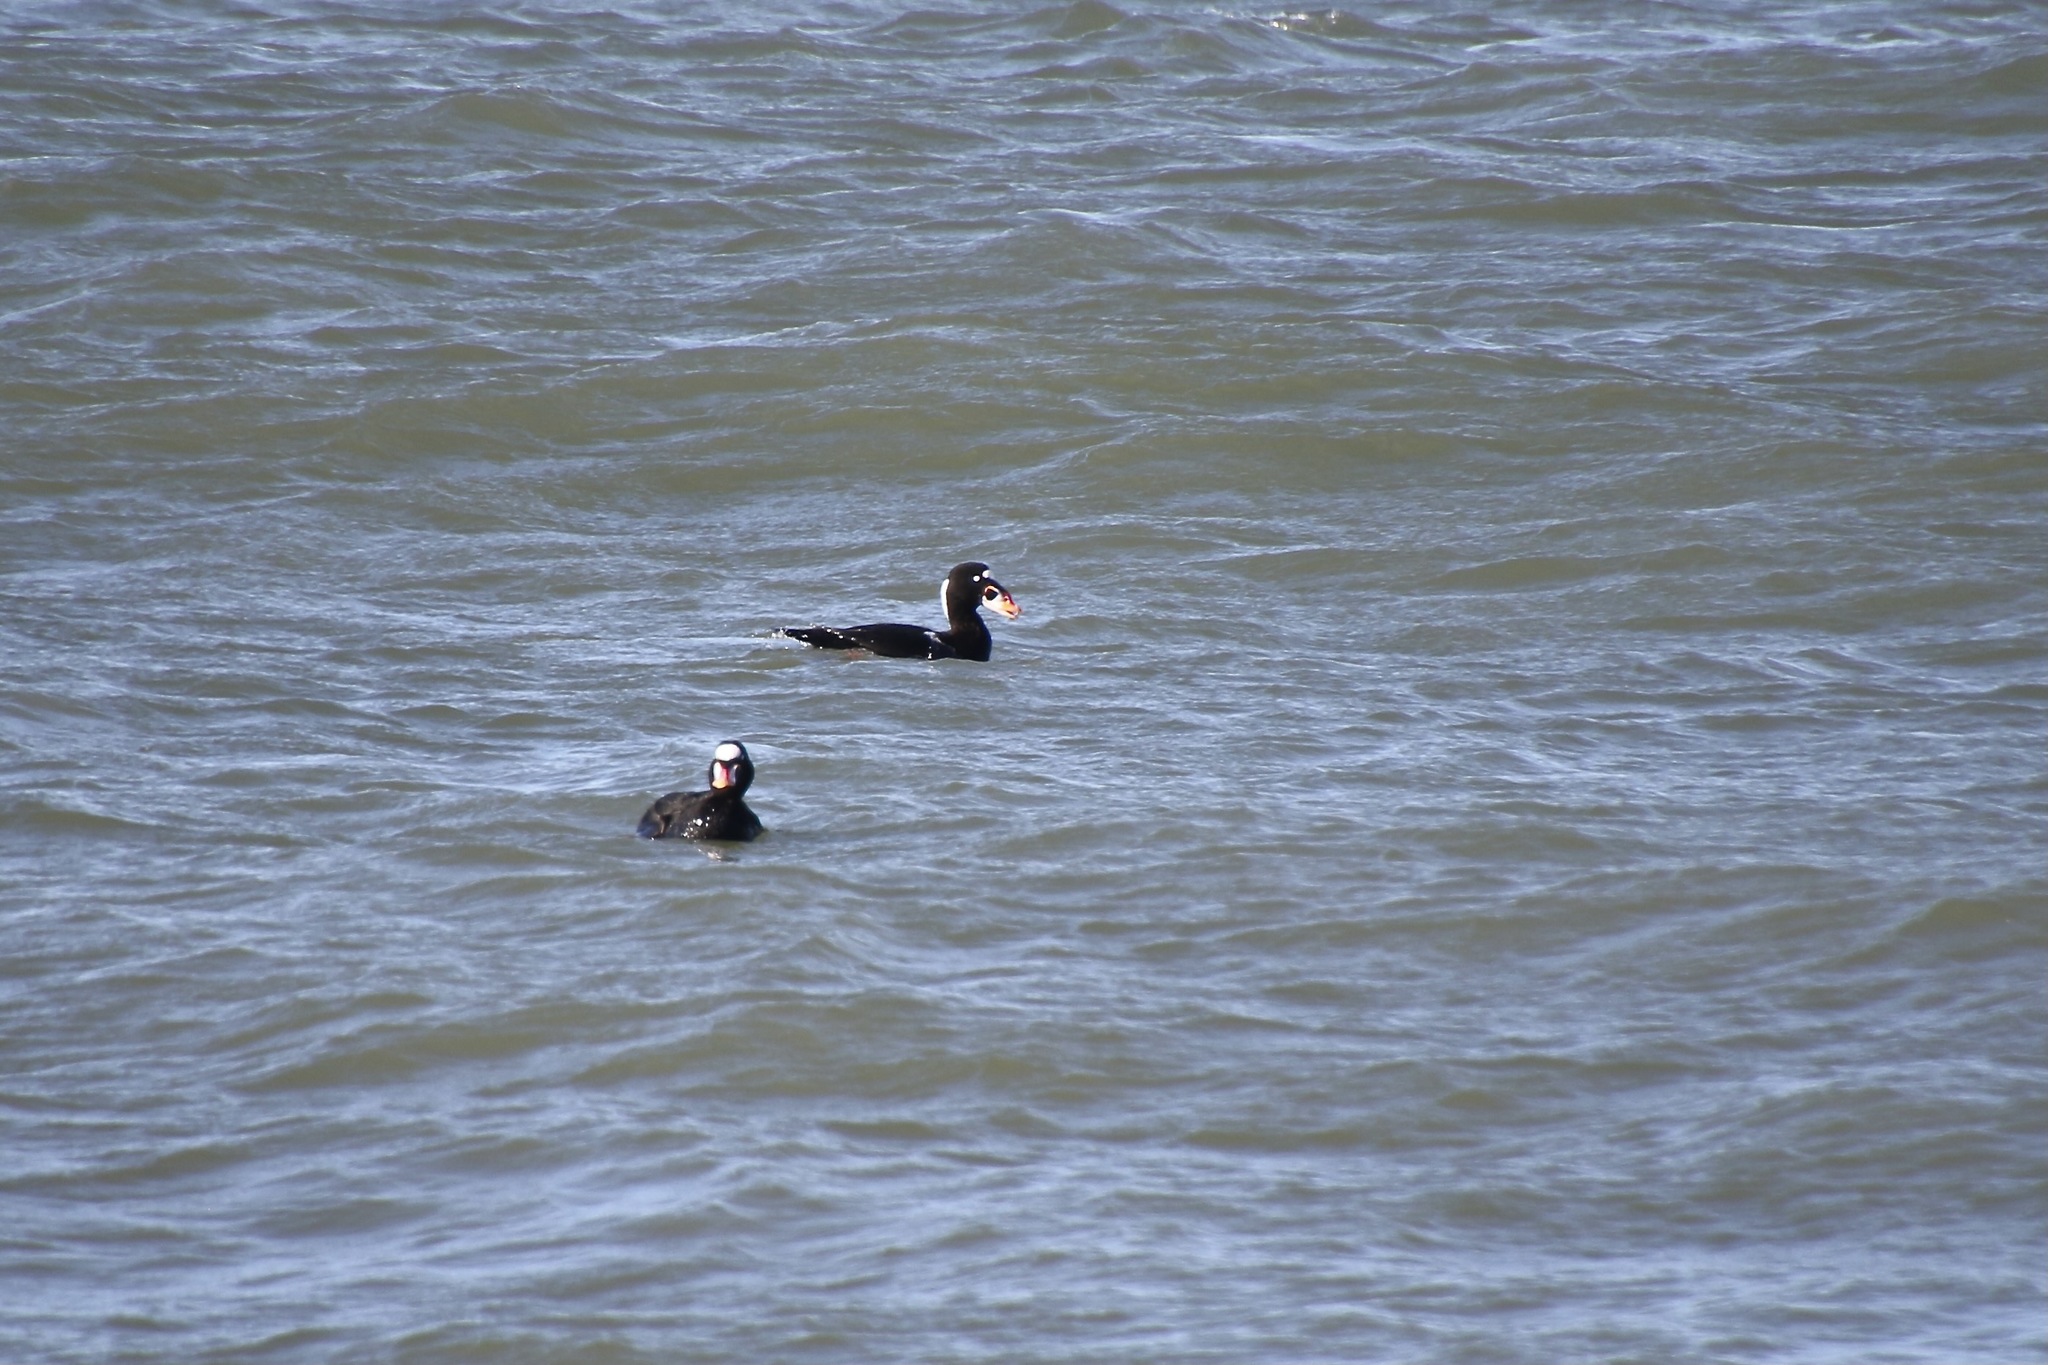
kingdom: Animalia
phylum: Chordata
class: Aves
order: Anseriformes
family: Anatidae
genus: Melanitta
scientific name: Melanitta perspicillata
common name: Surf scoter
